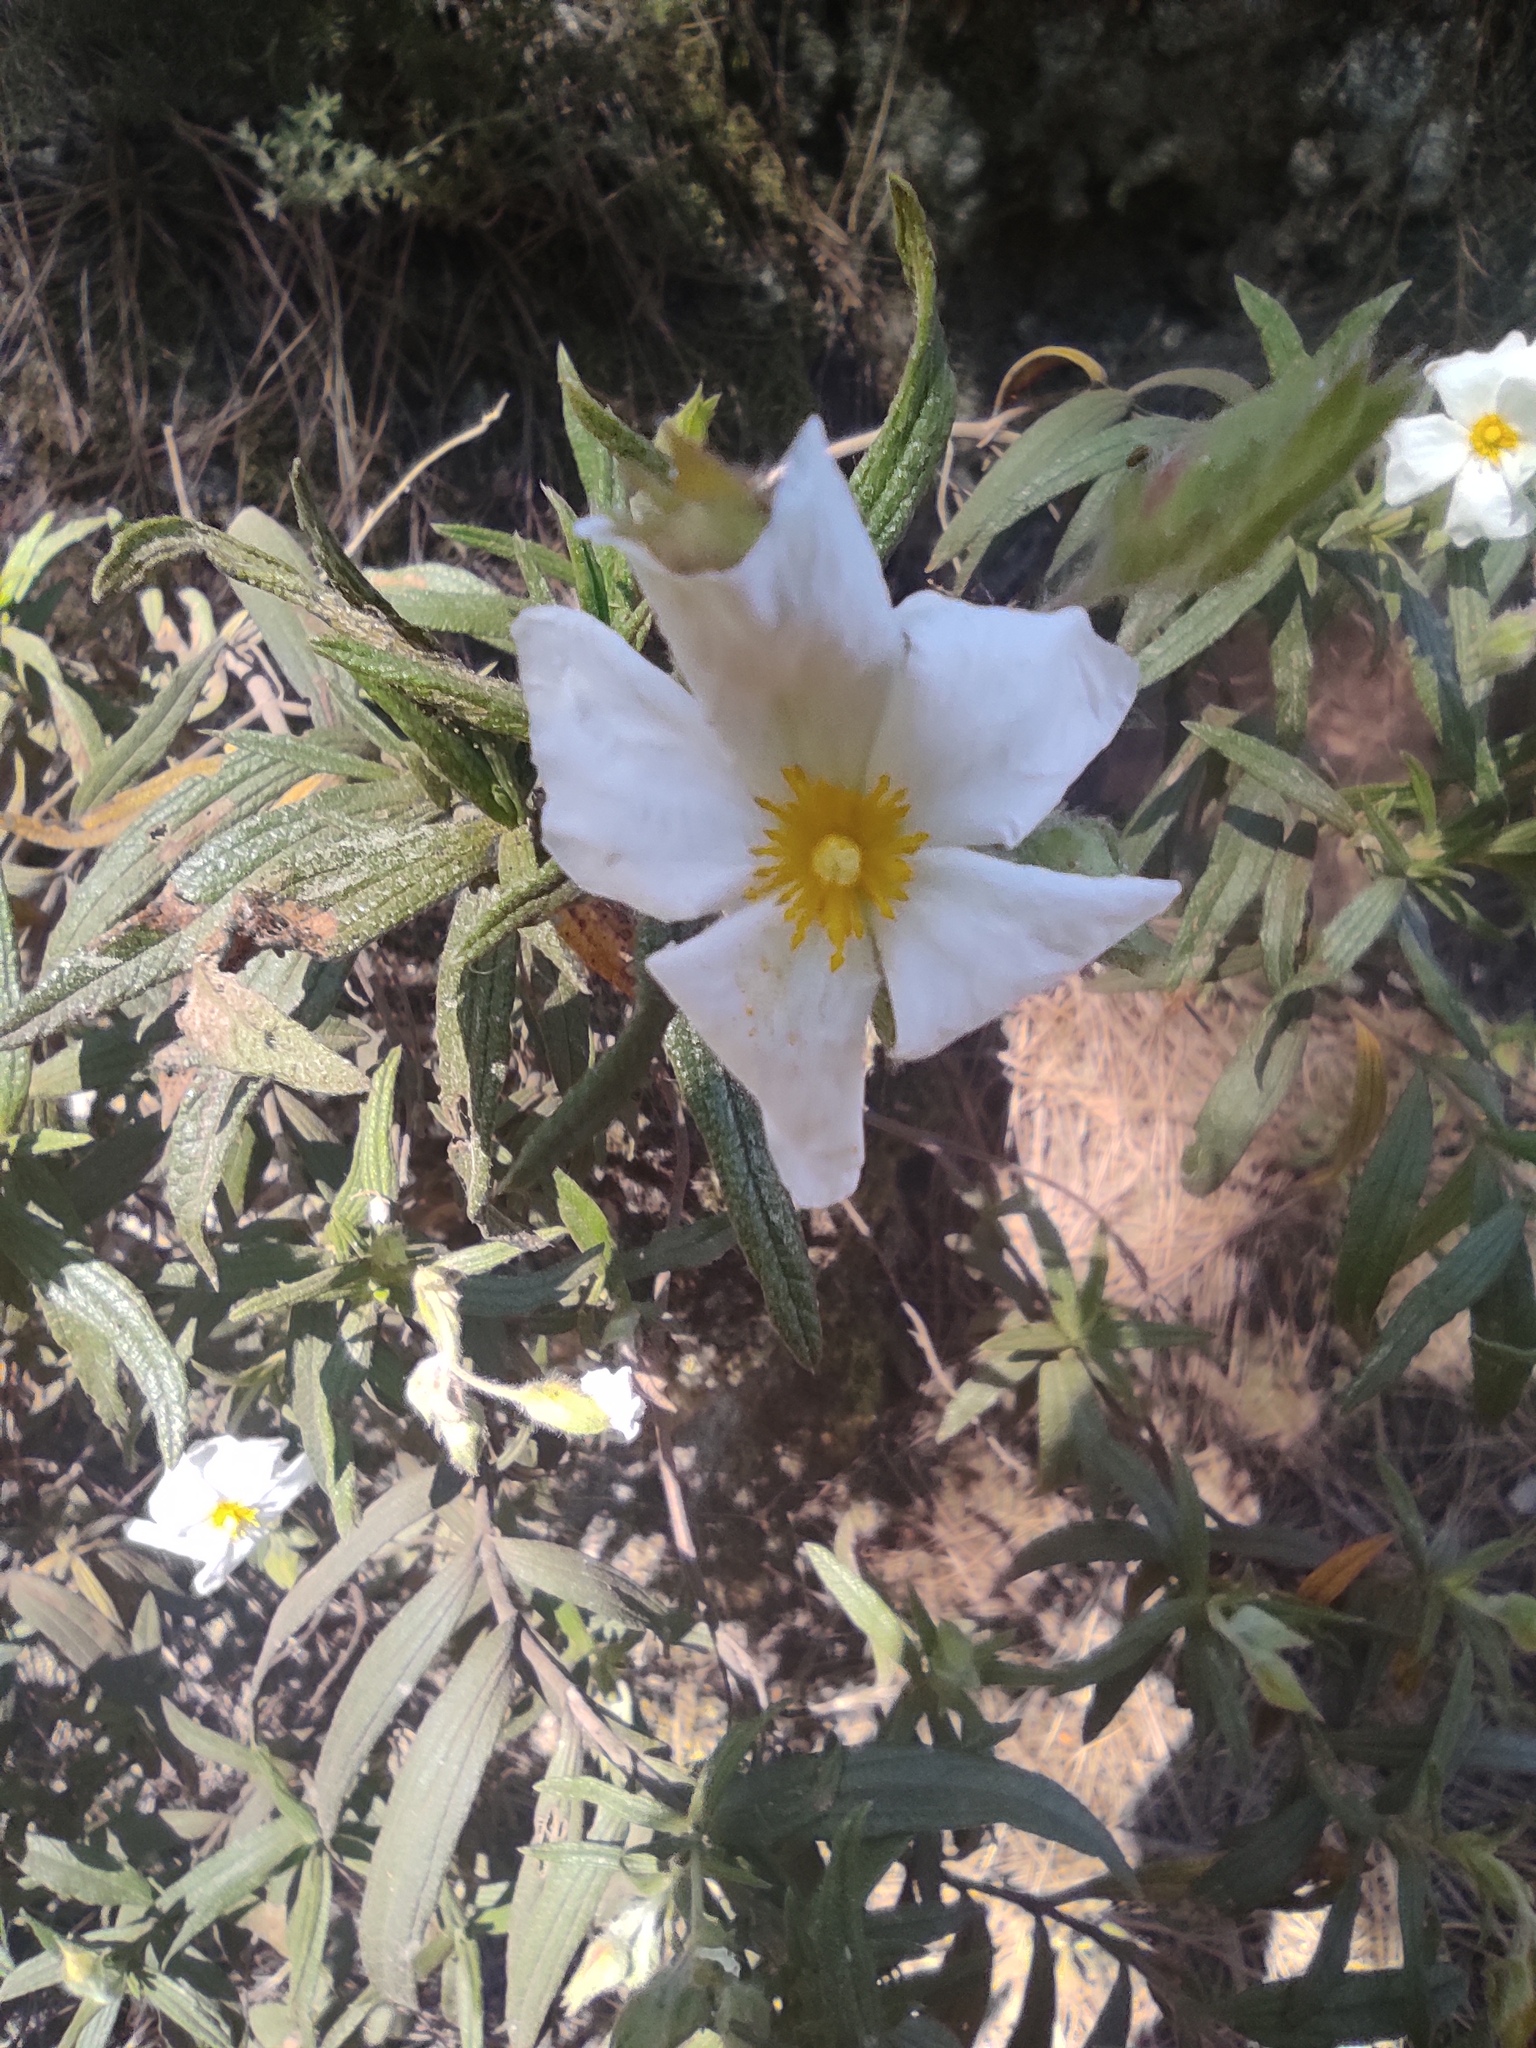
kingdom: Plantae
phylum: Tracheophyta
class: Magnoliopsida
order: Malvales
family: Cistaceae
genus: Cistus
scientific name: Cistus symphytifolius
